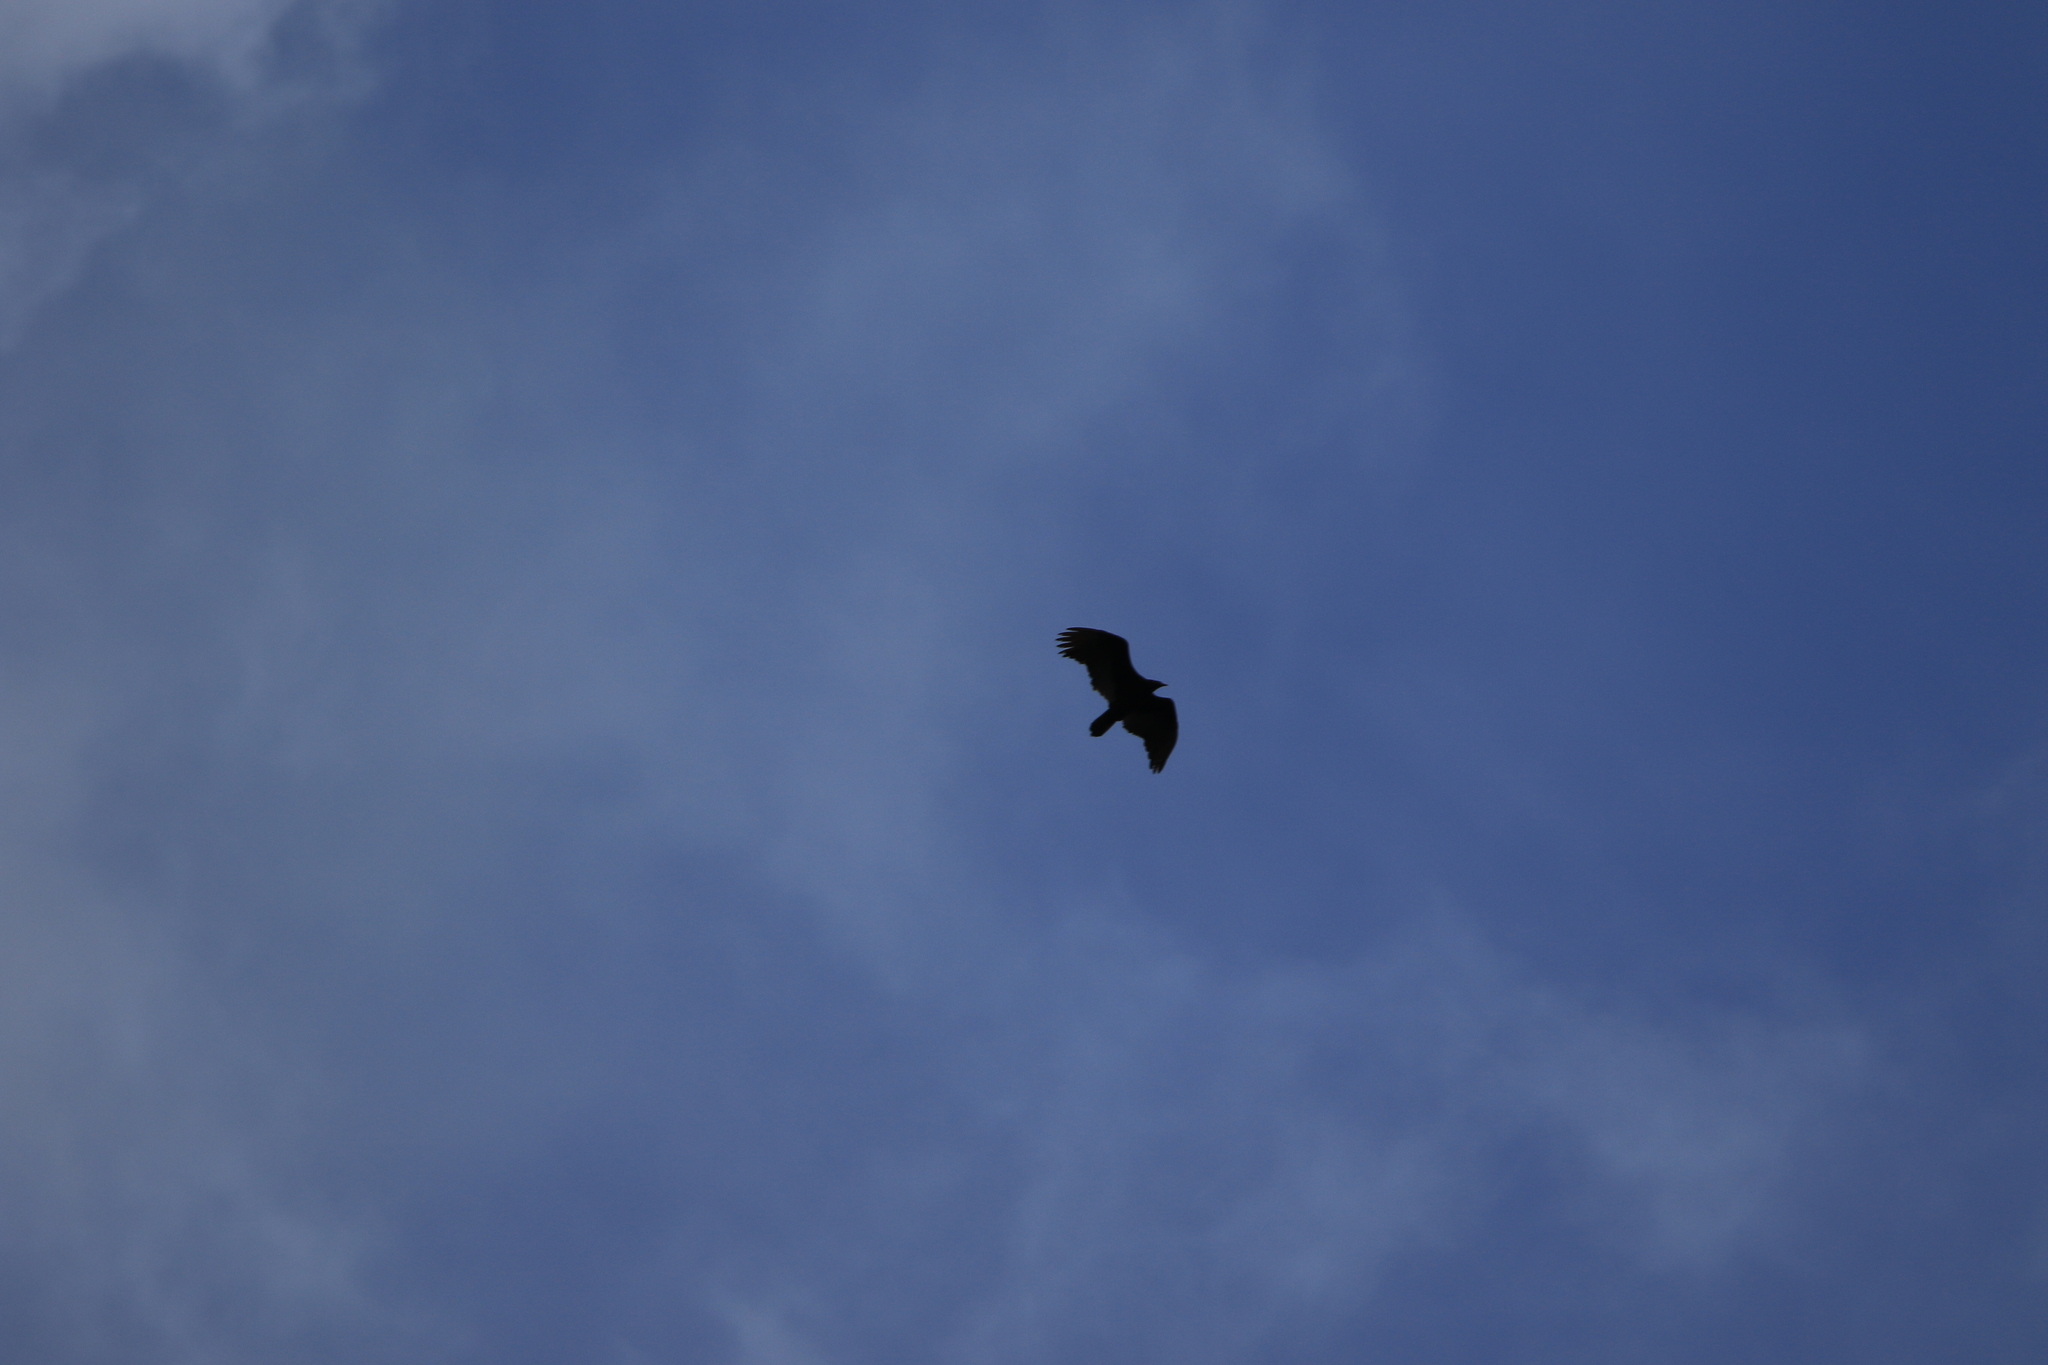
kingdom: Animalia
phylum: Chordata
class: Aves
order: Accipitriformes
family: Cathartidae
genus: Cathartes
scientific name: Cathartes aura
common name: Turkey vulture
